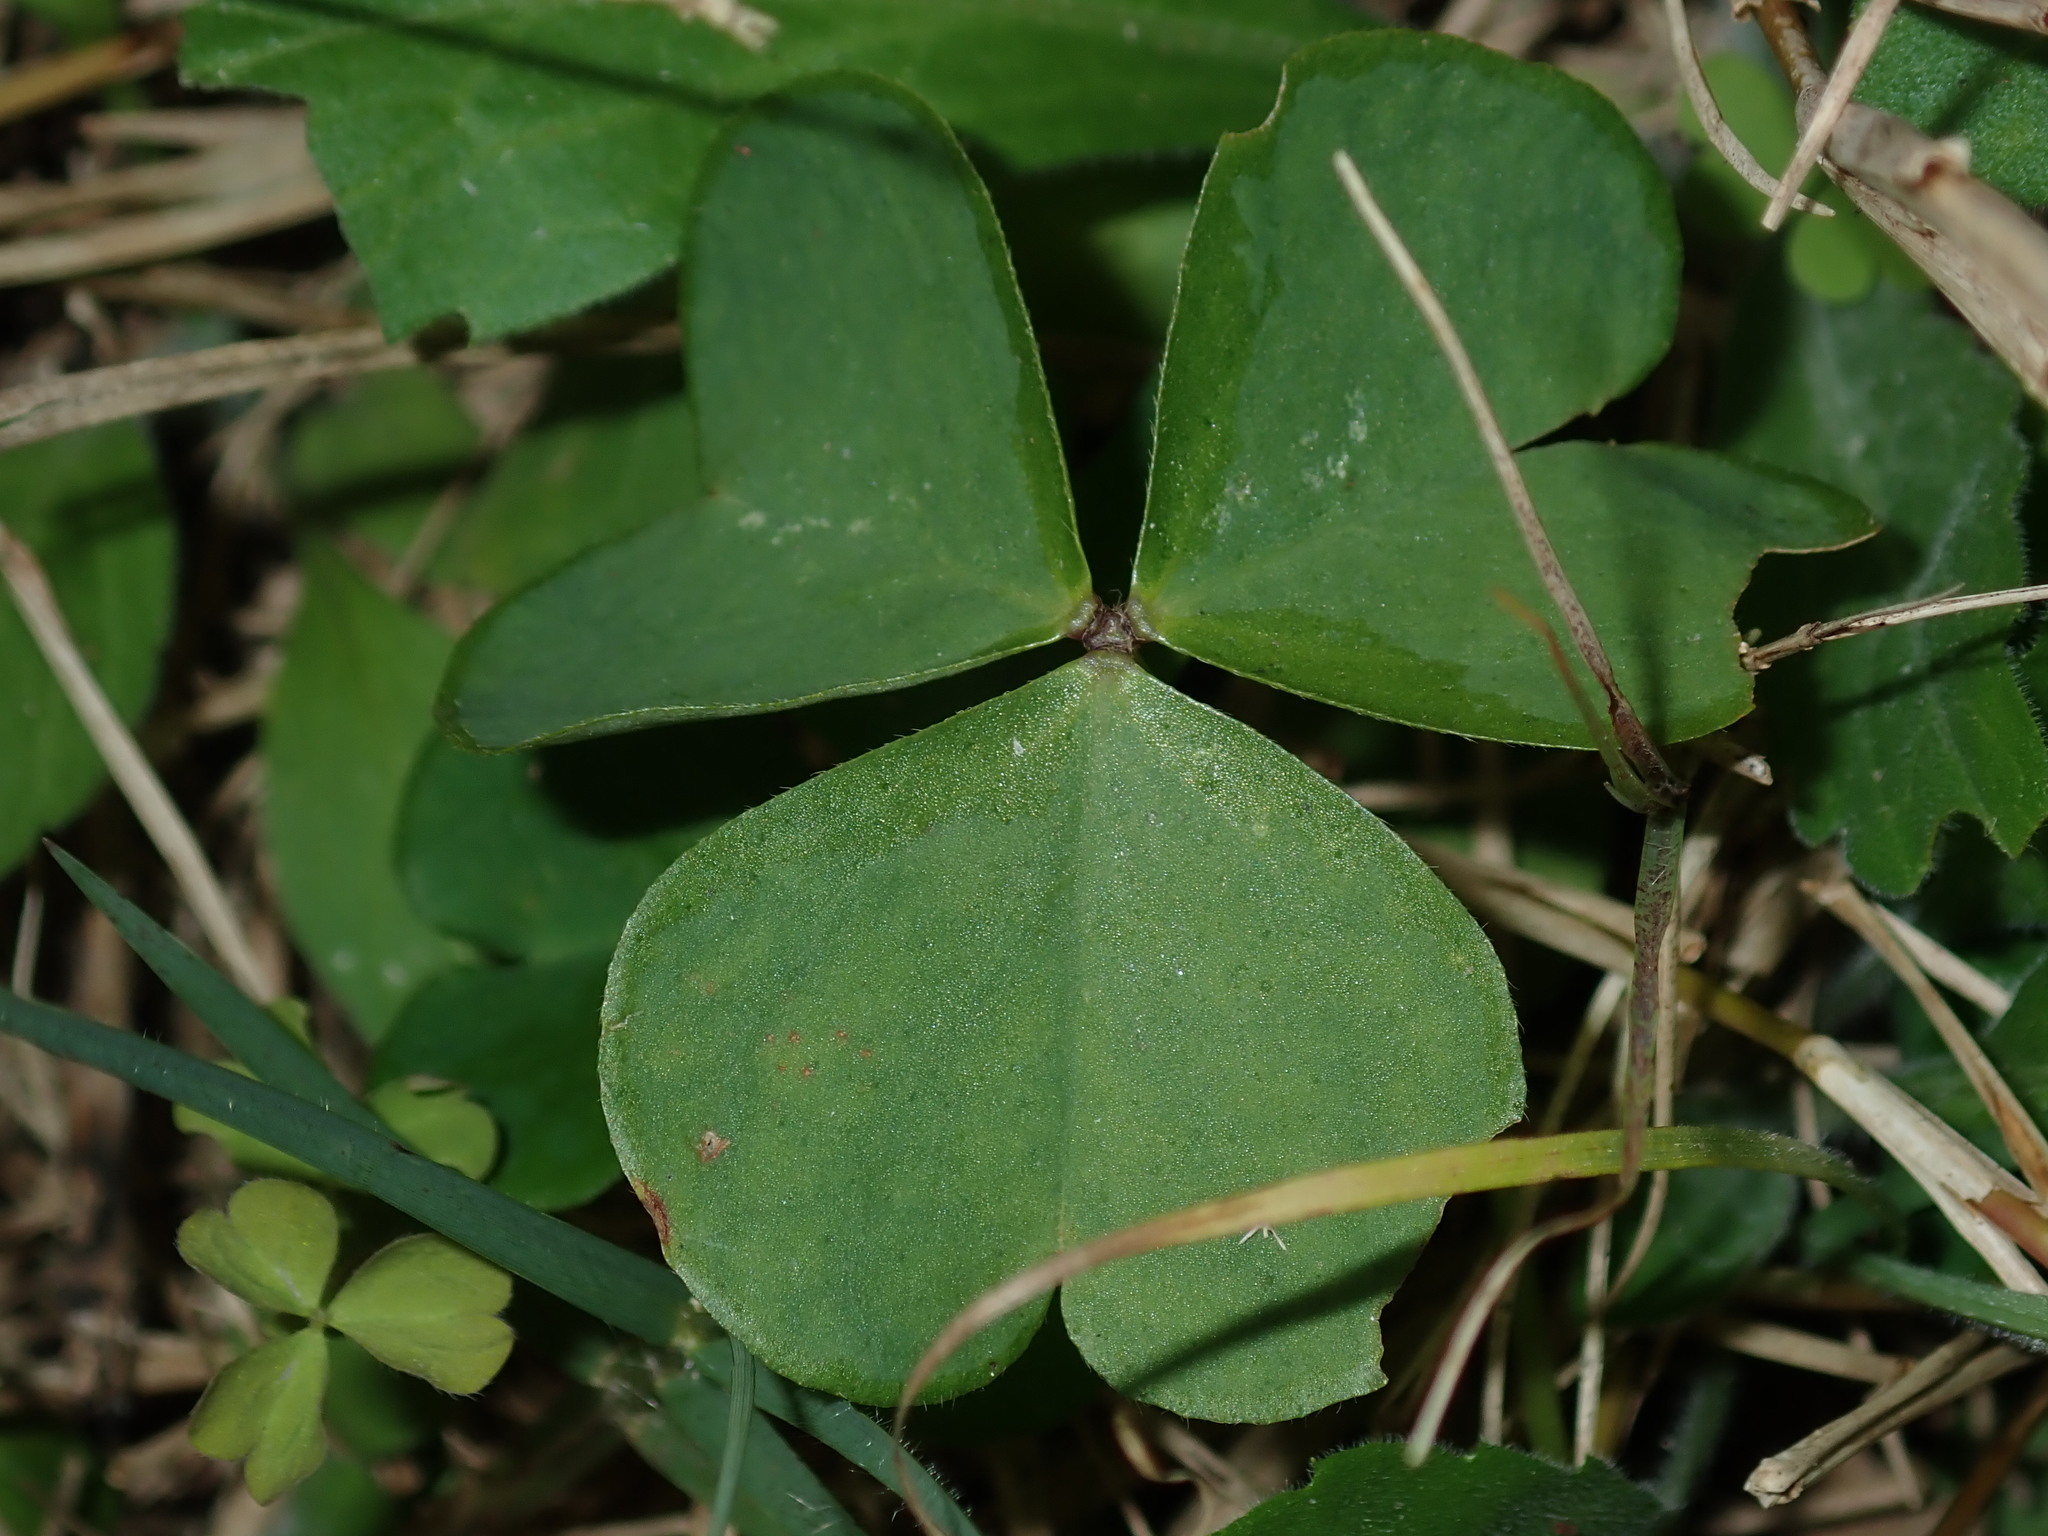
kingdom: Plantae
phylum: Tracheophyta
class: Magnoliopsida
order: Oxalidales
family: Oxalidaceae
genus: Oxalis
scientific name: Oxalis debilis
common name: Large-flowered pink-sorrel
